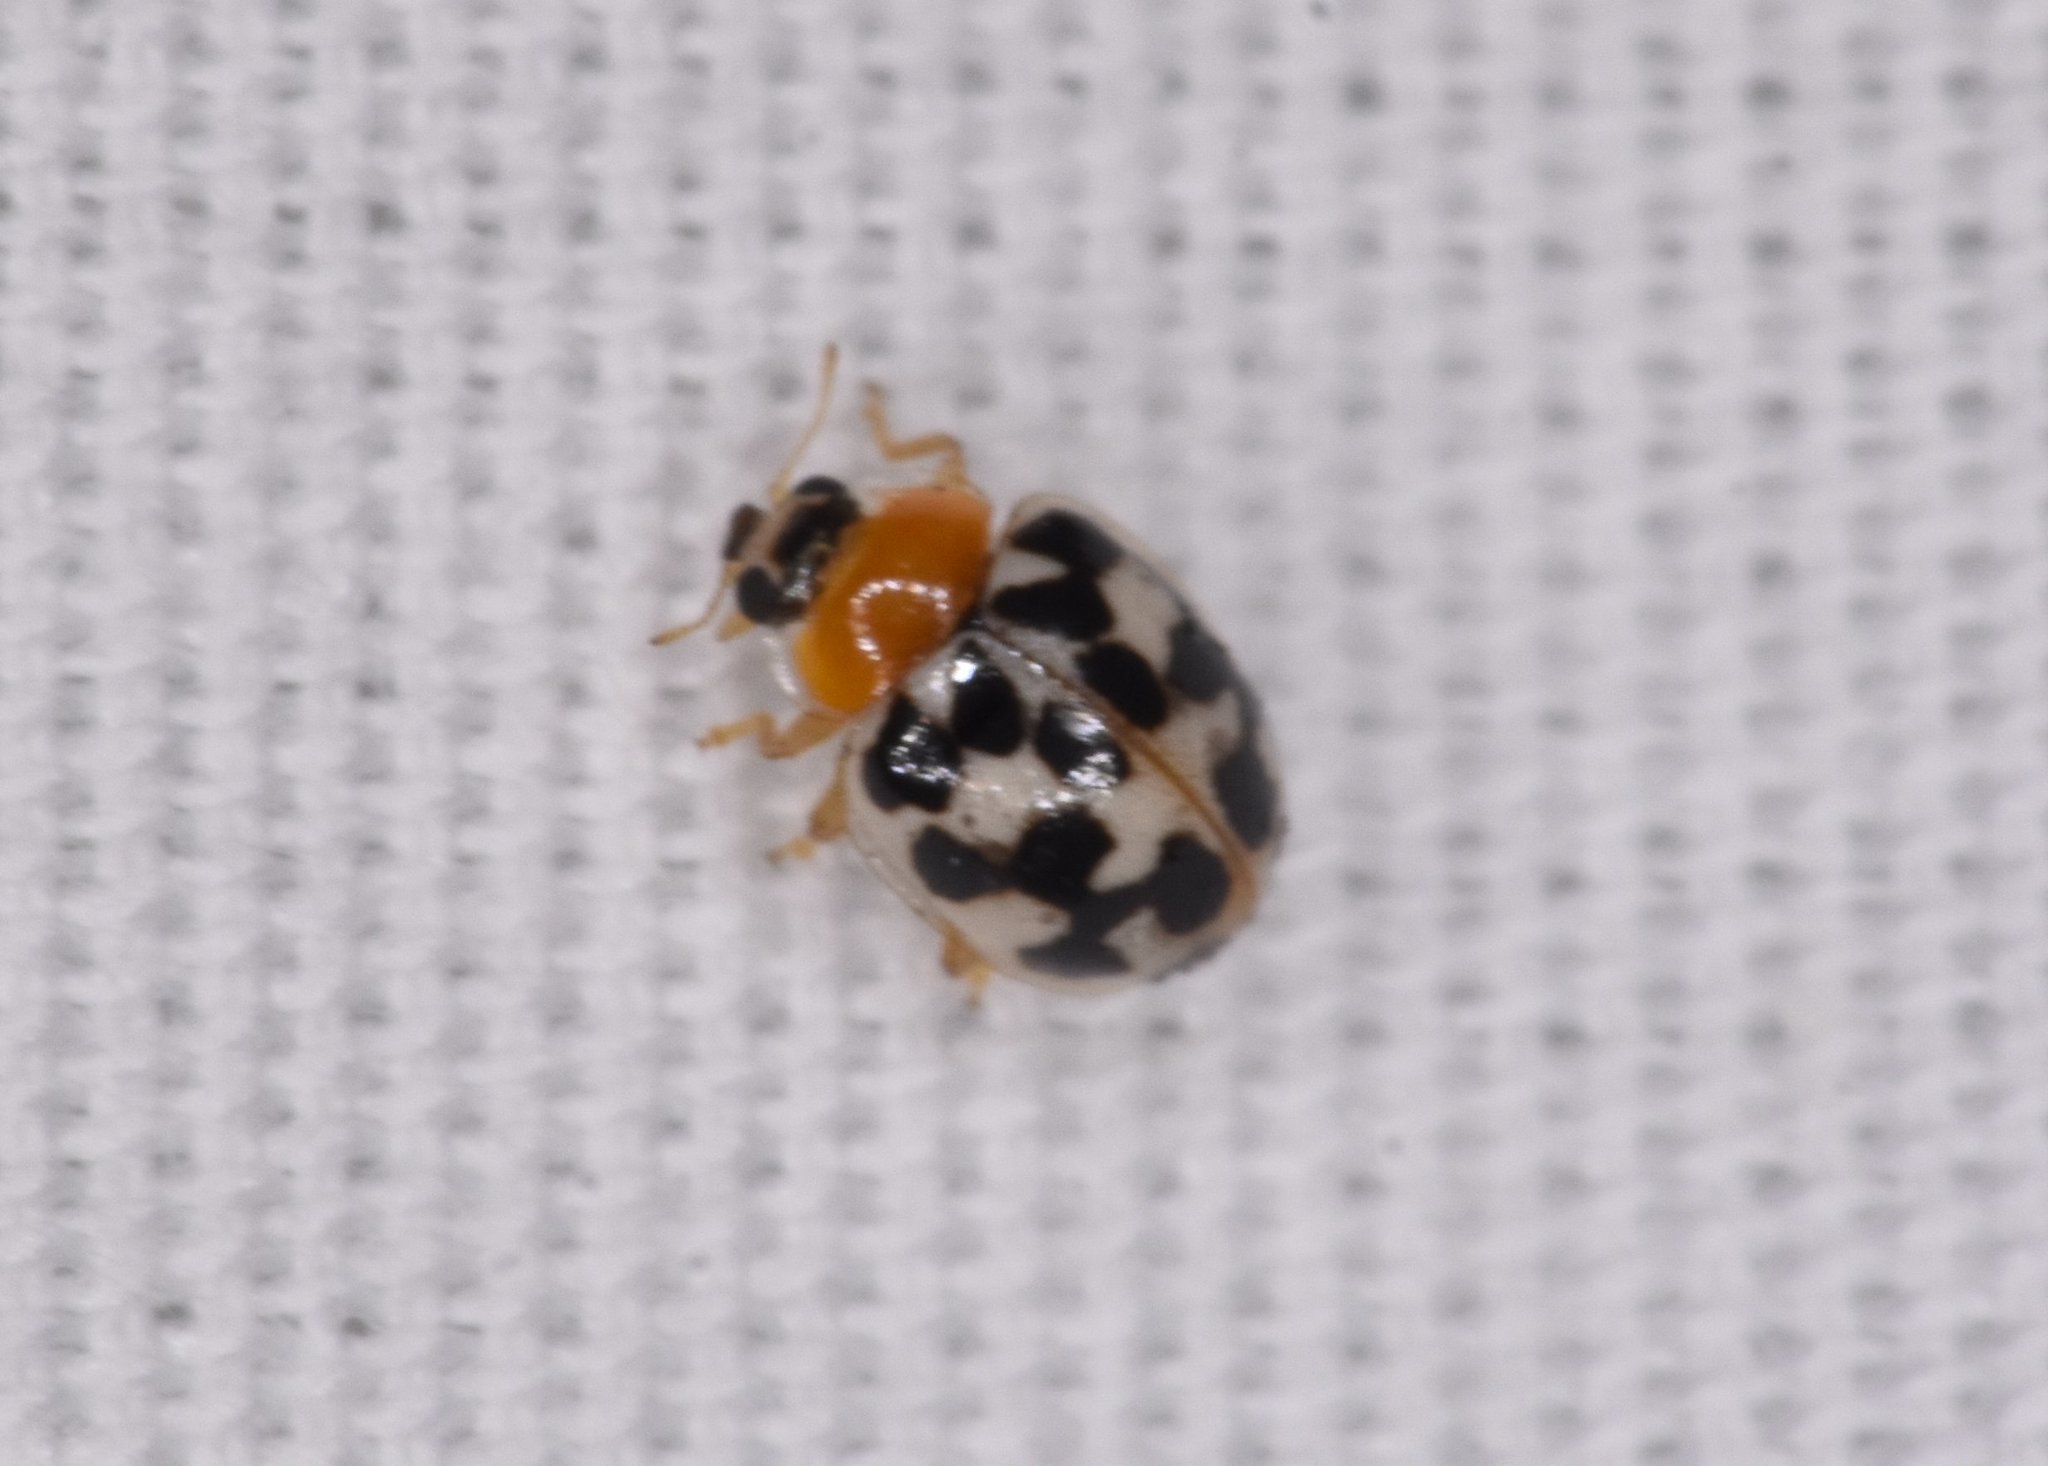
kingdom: Animalia
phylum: Arthropoda
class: Insecta
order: Coleoptera
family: Coccinellidae
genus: Psyllobora
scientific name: Psyllobora parvinotata
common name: Small-spotted psyllobora
